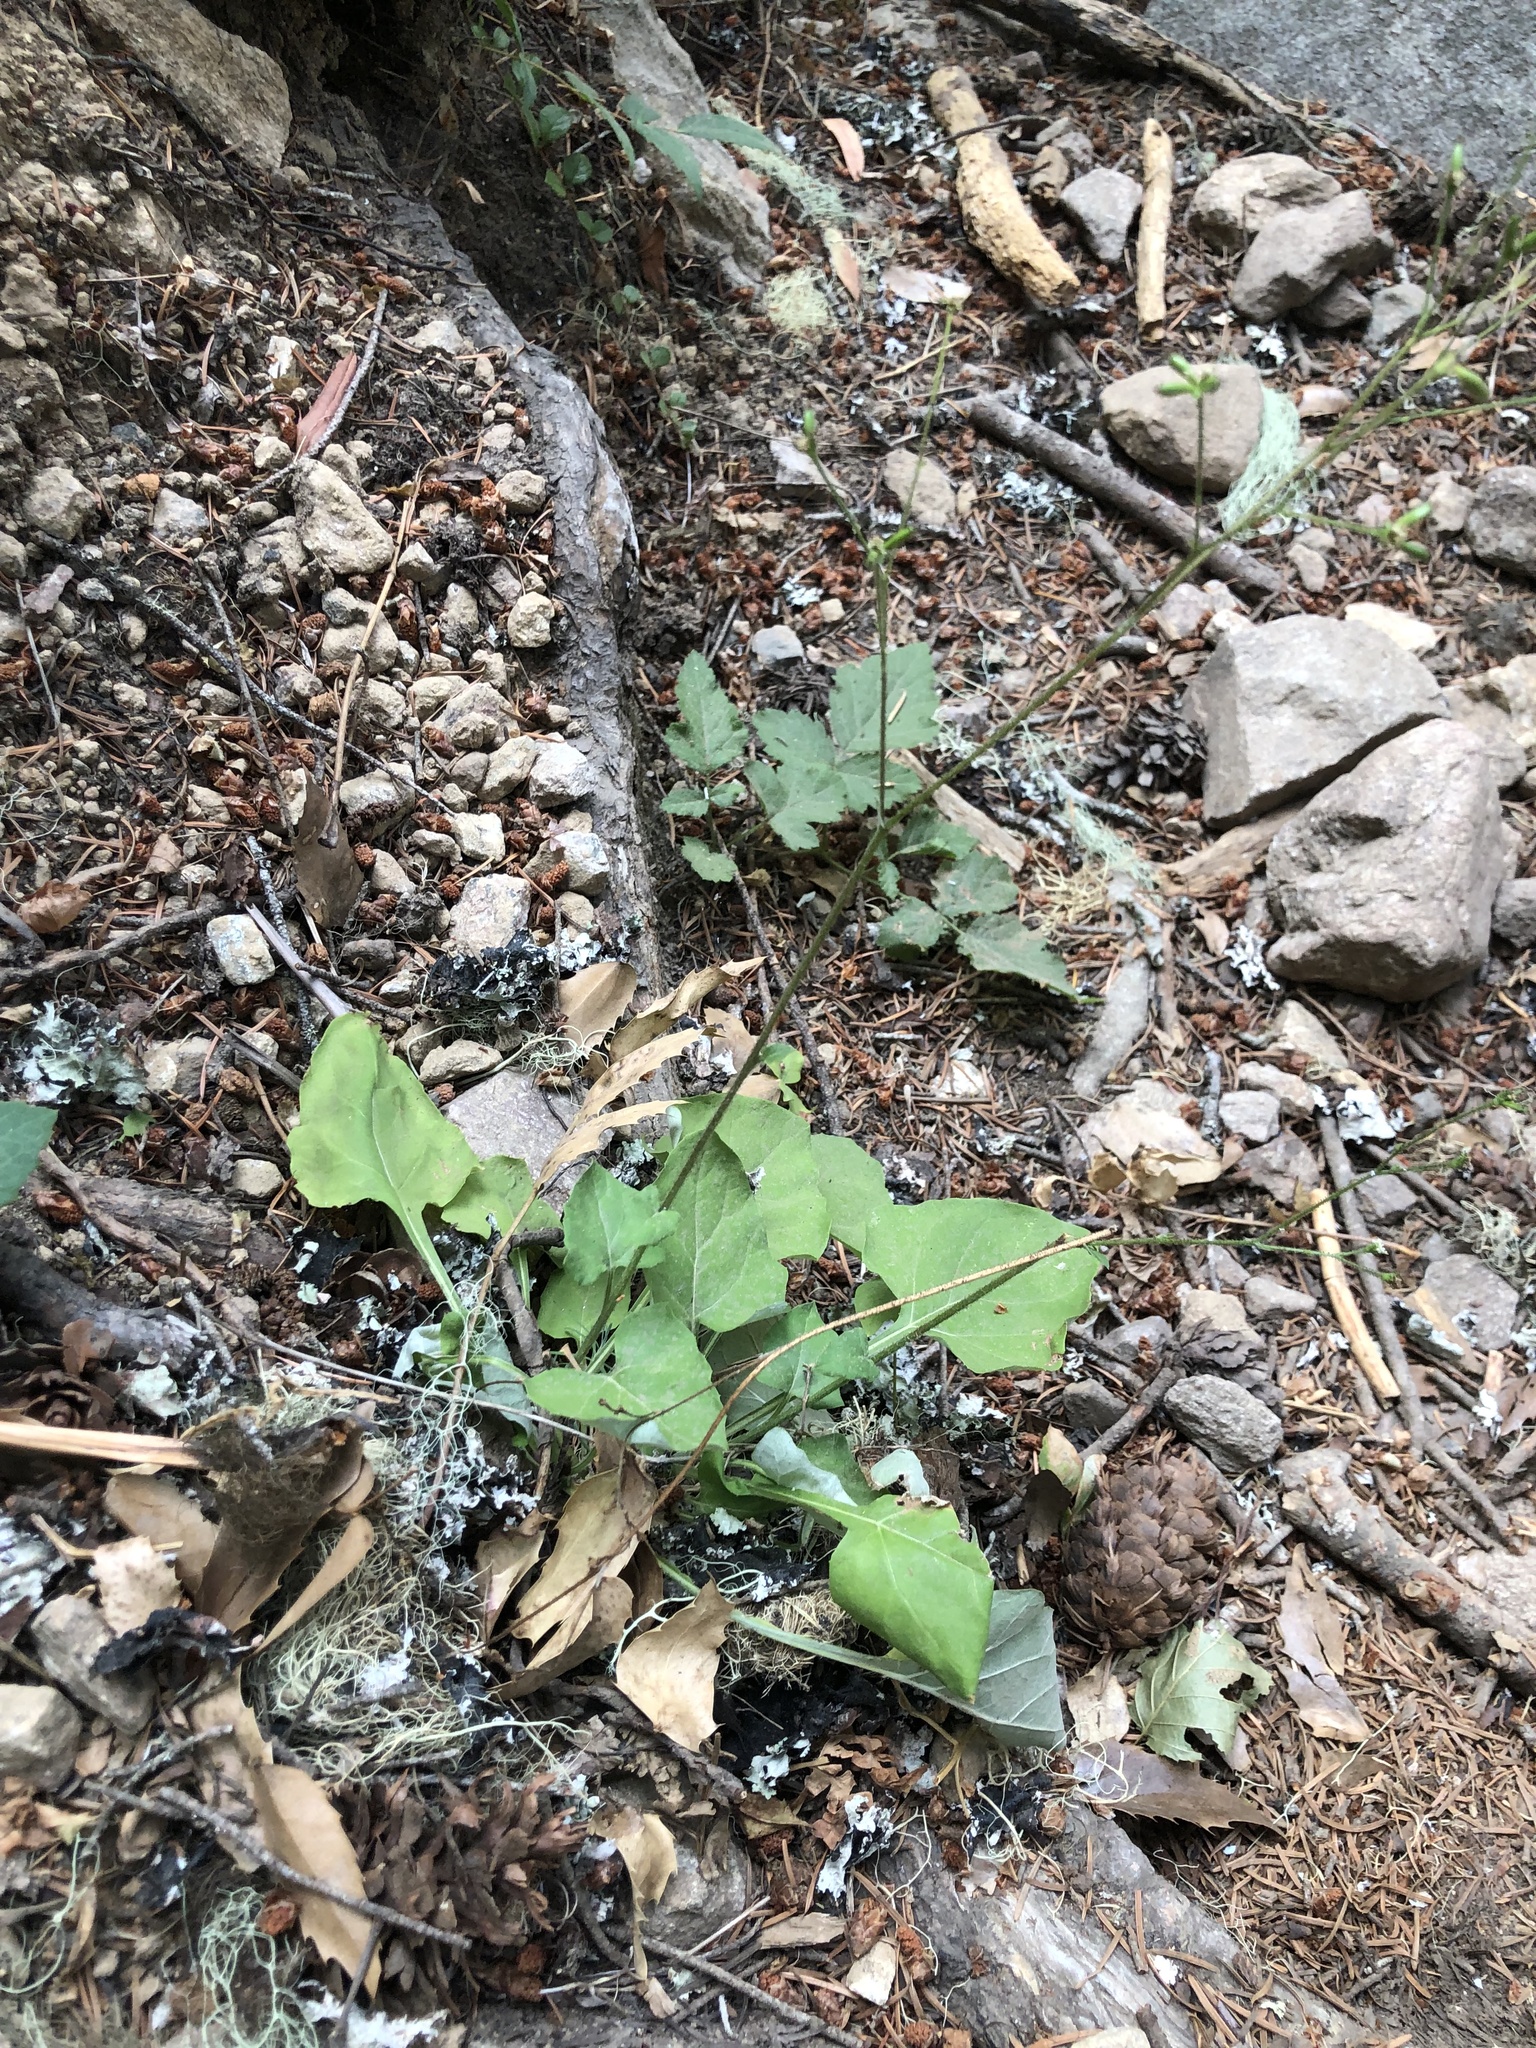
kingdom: Plantae
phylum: Tracheophyta
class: Magnoliopsida
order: Asterales
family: Asteraceae
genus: Adenocaulon
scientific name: Adenocaulon bicolor
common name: Trailplant
